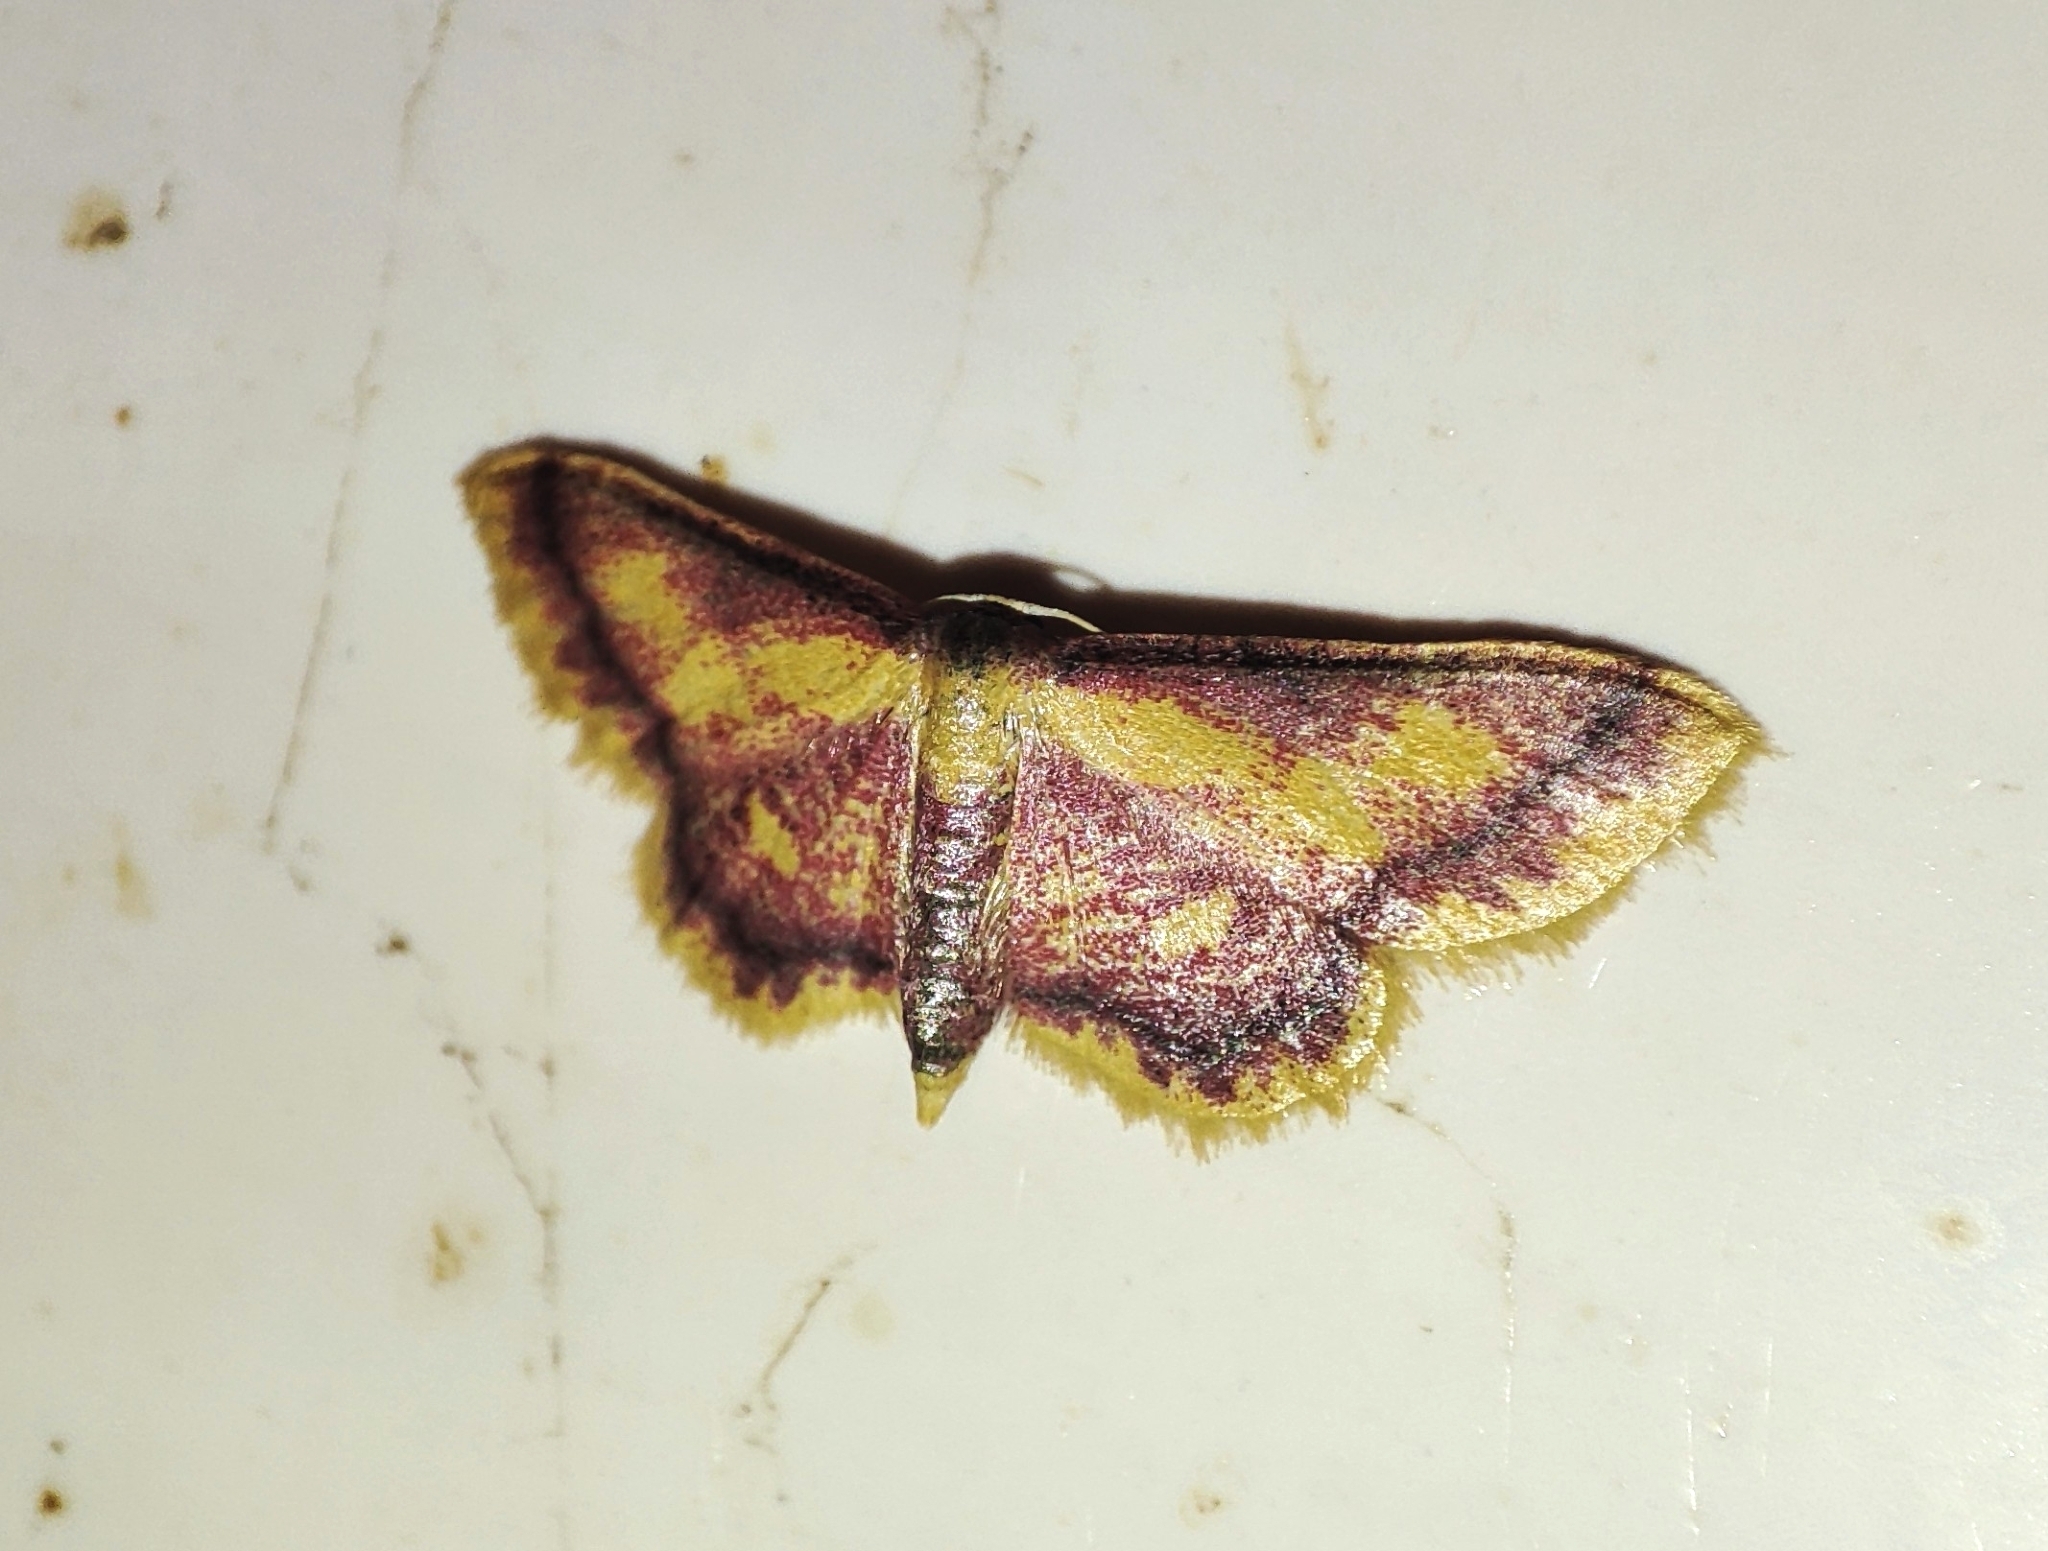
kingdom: Animalia
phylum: Arthropoda
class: Insecta
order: Lepidoptera
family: Geometridae
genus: Idaea
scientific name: Idaea muricata
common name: Purple-bordered gold
